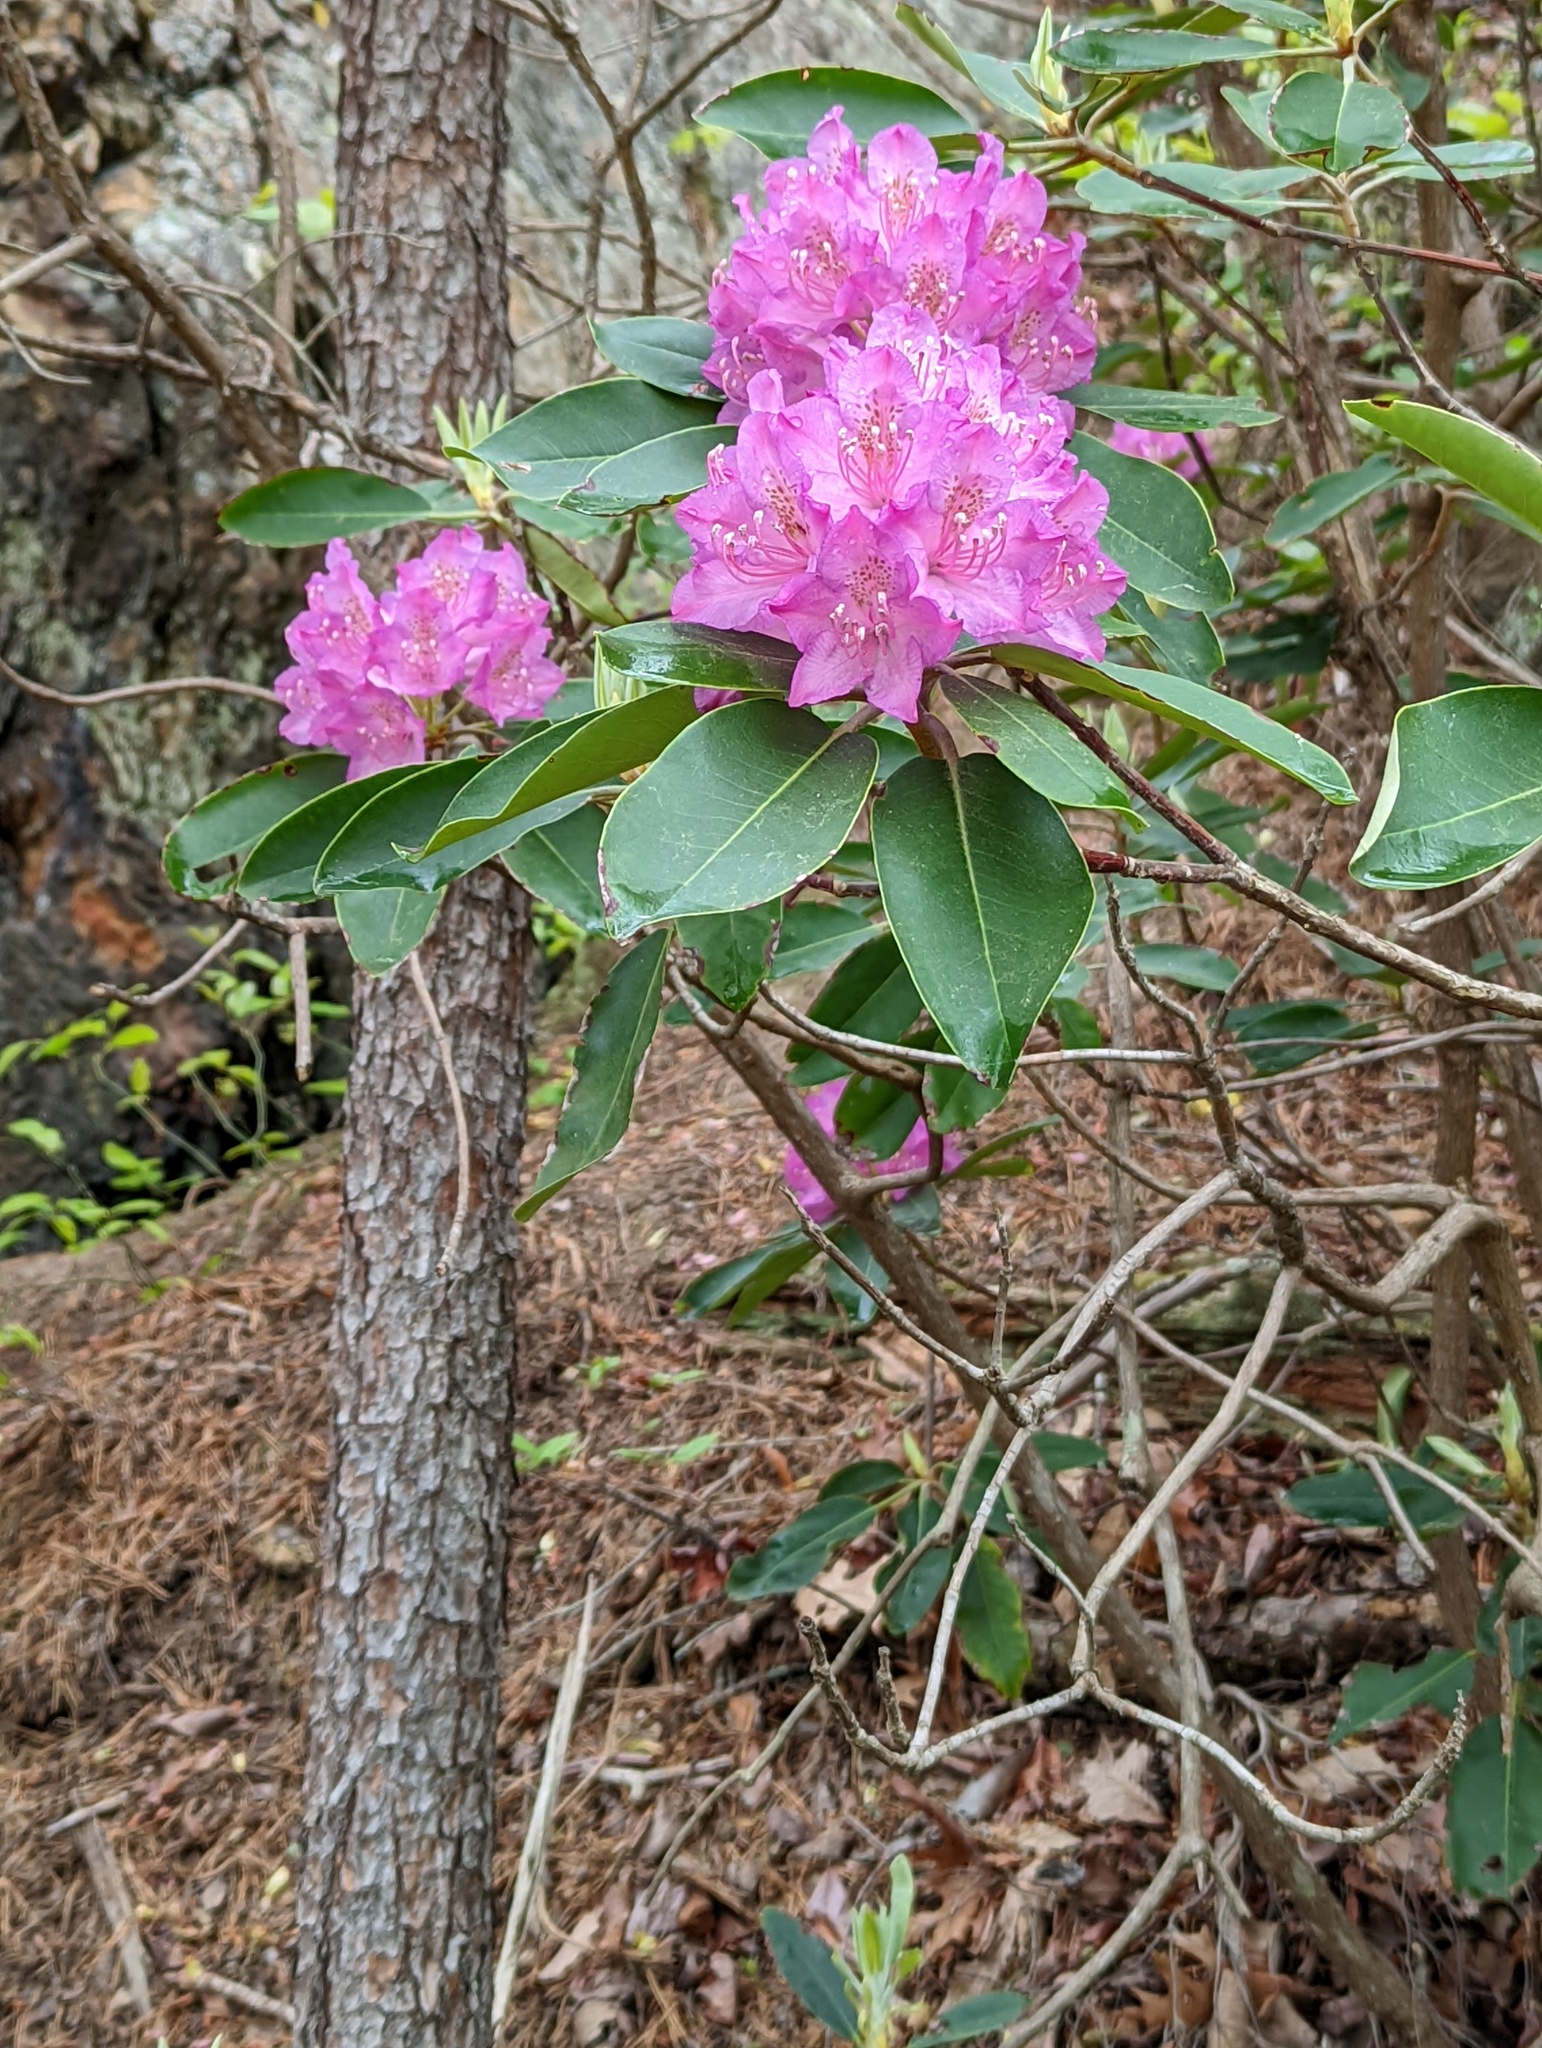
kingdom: Plantae
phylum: Tracheophyta
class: Magnoliopsida
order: Ericales
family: Ericaceae
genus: Rhododendron
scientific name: Rhododendron catawbiense
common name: Catawba rhododendron
